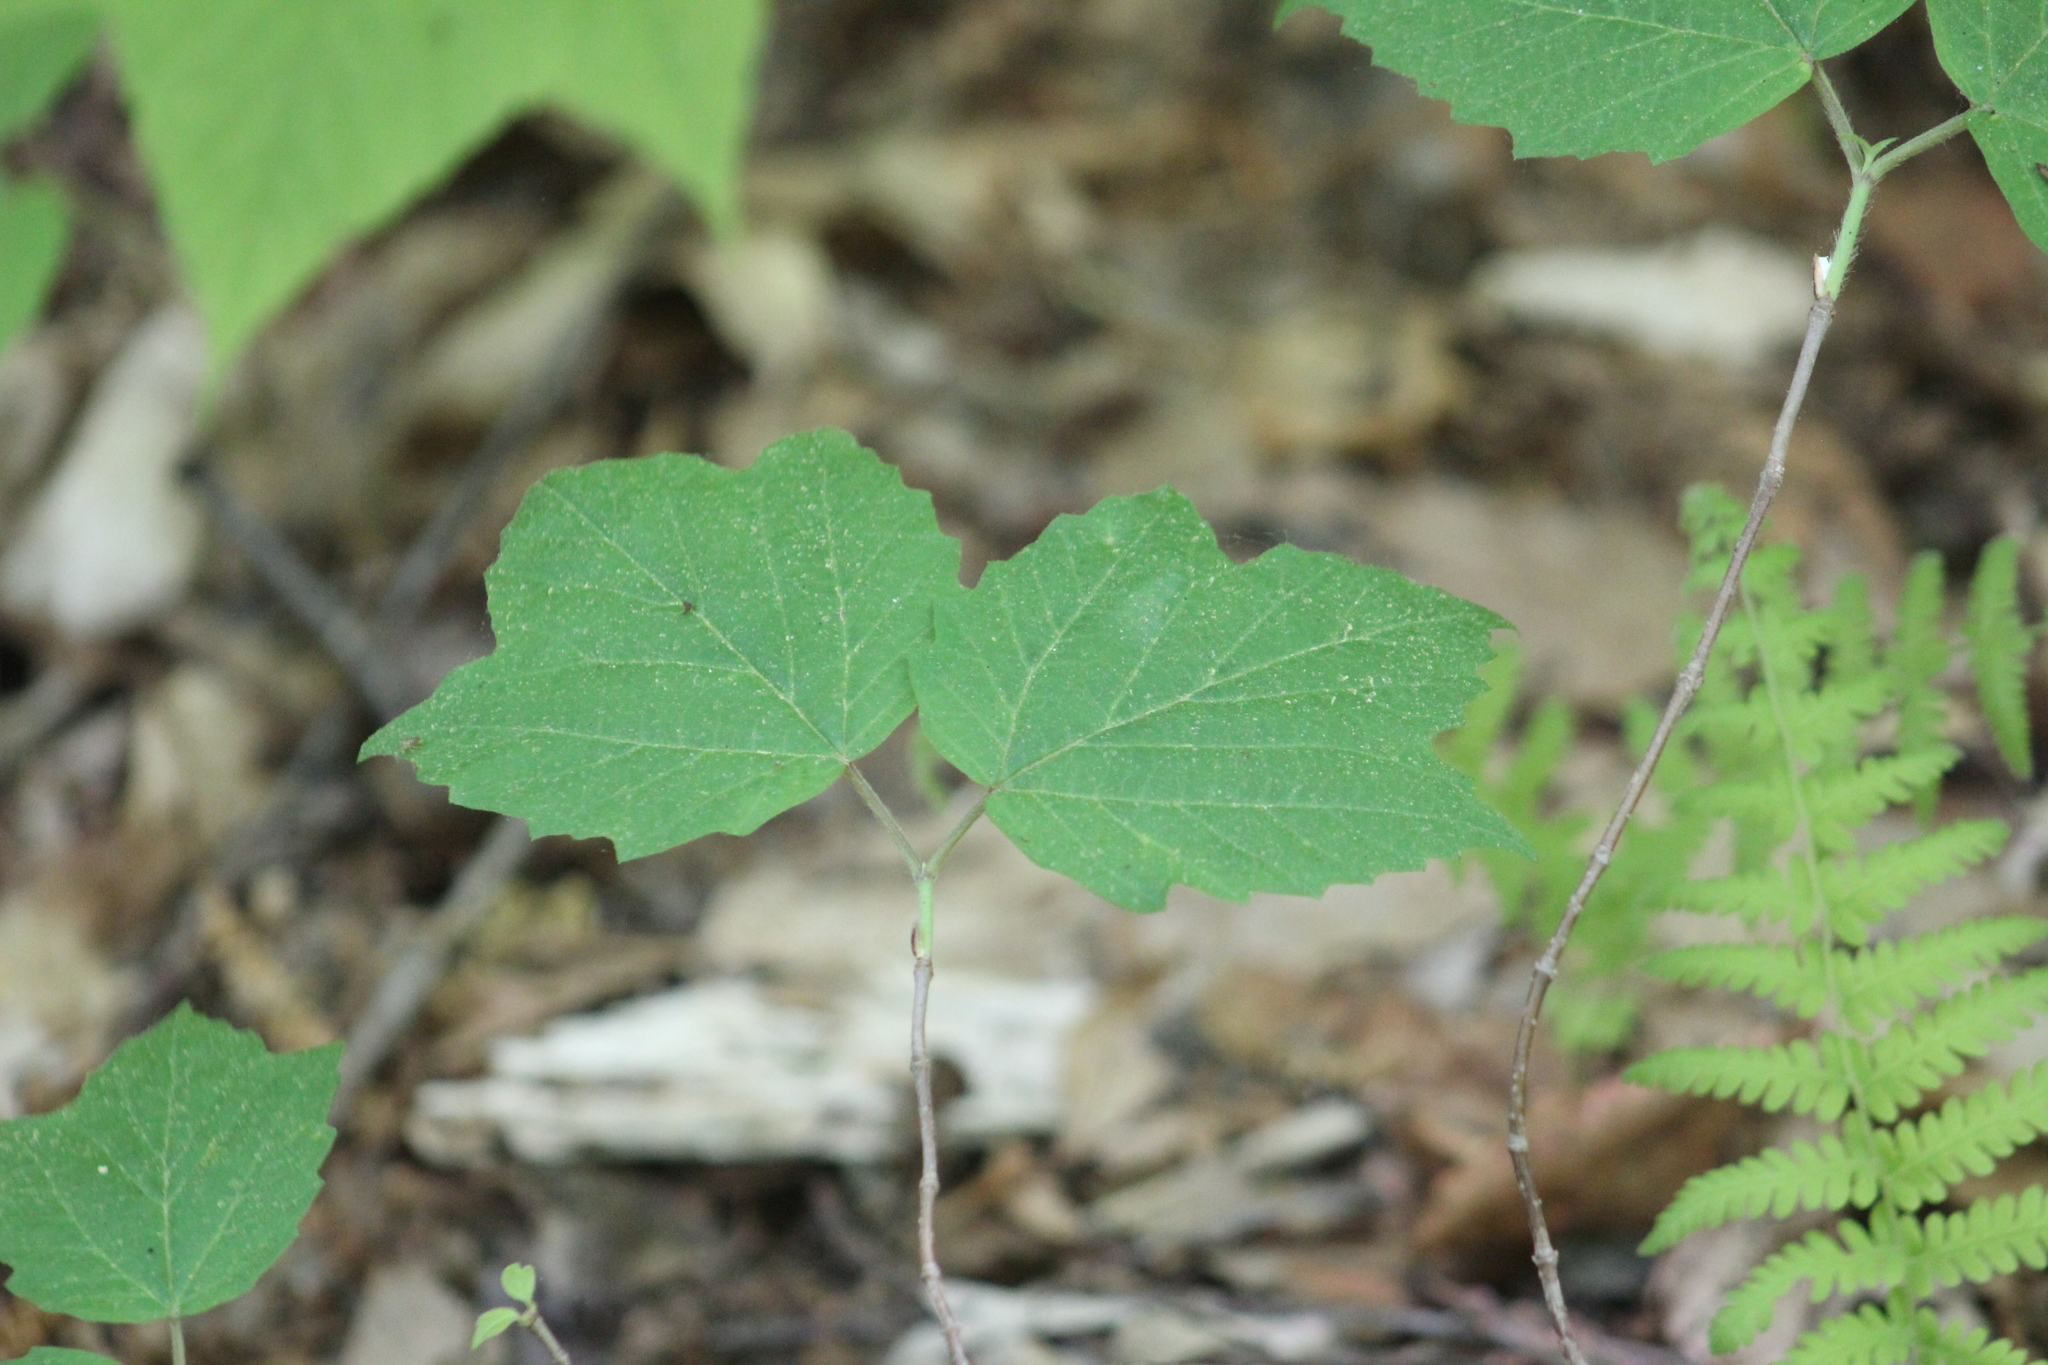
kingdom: Plantae
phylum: Tracheophyta
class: Magnoliopsida
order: Dipsacales
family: Viburnaceae
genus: Viburnum
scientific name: Viburnum acerifolium
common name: Dockmackie
